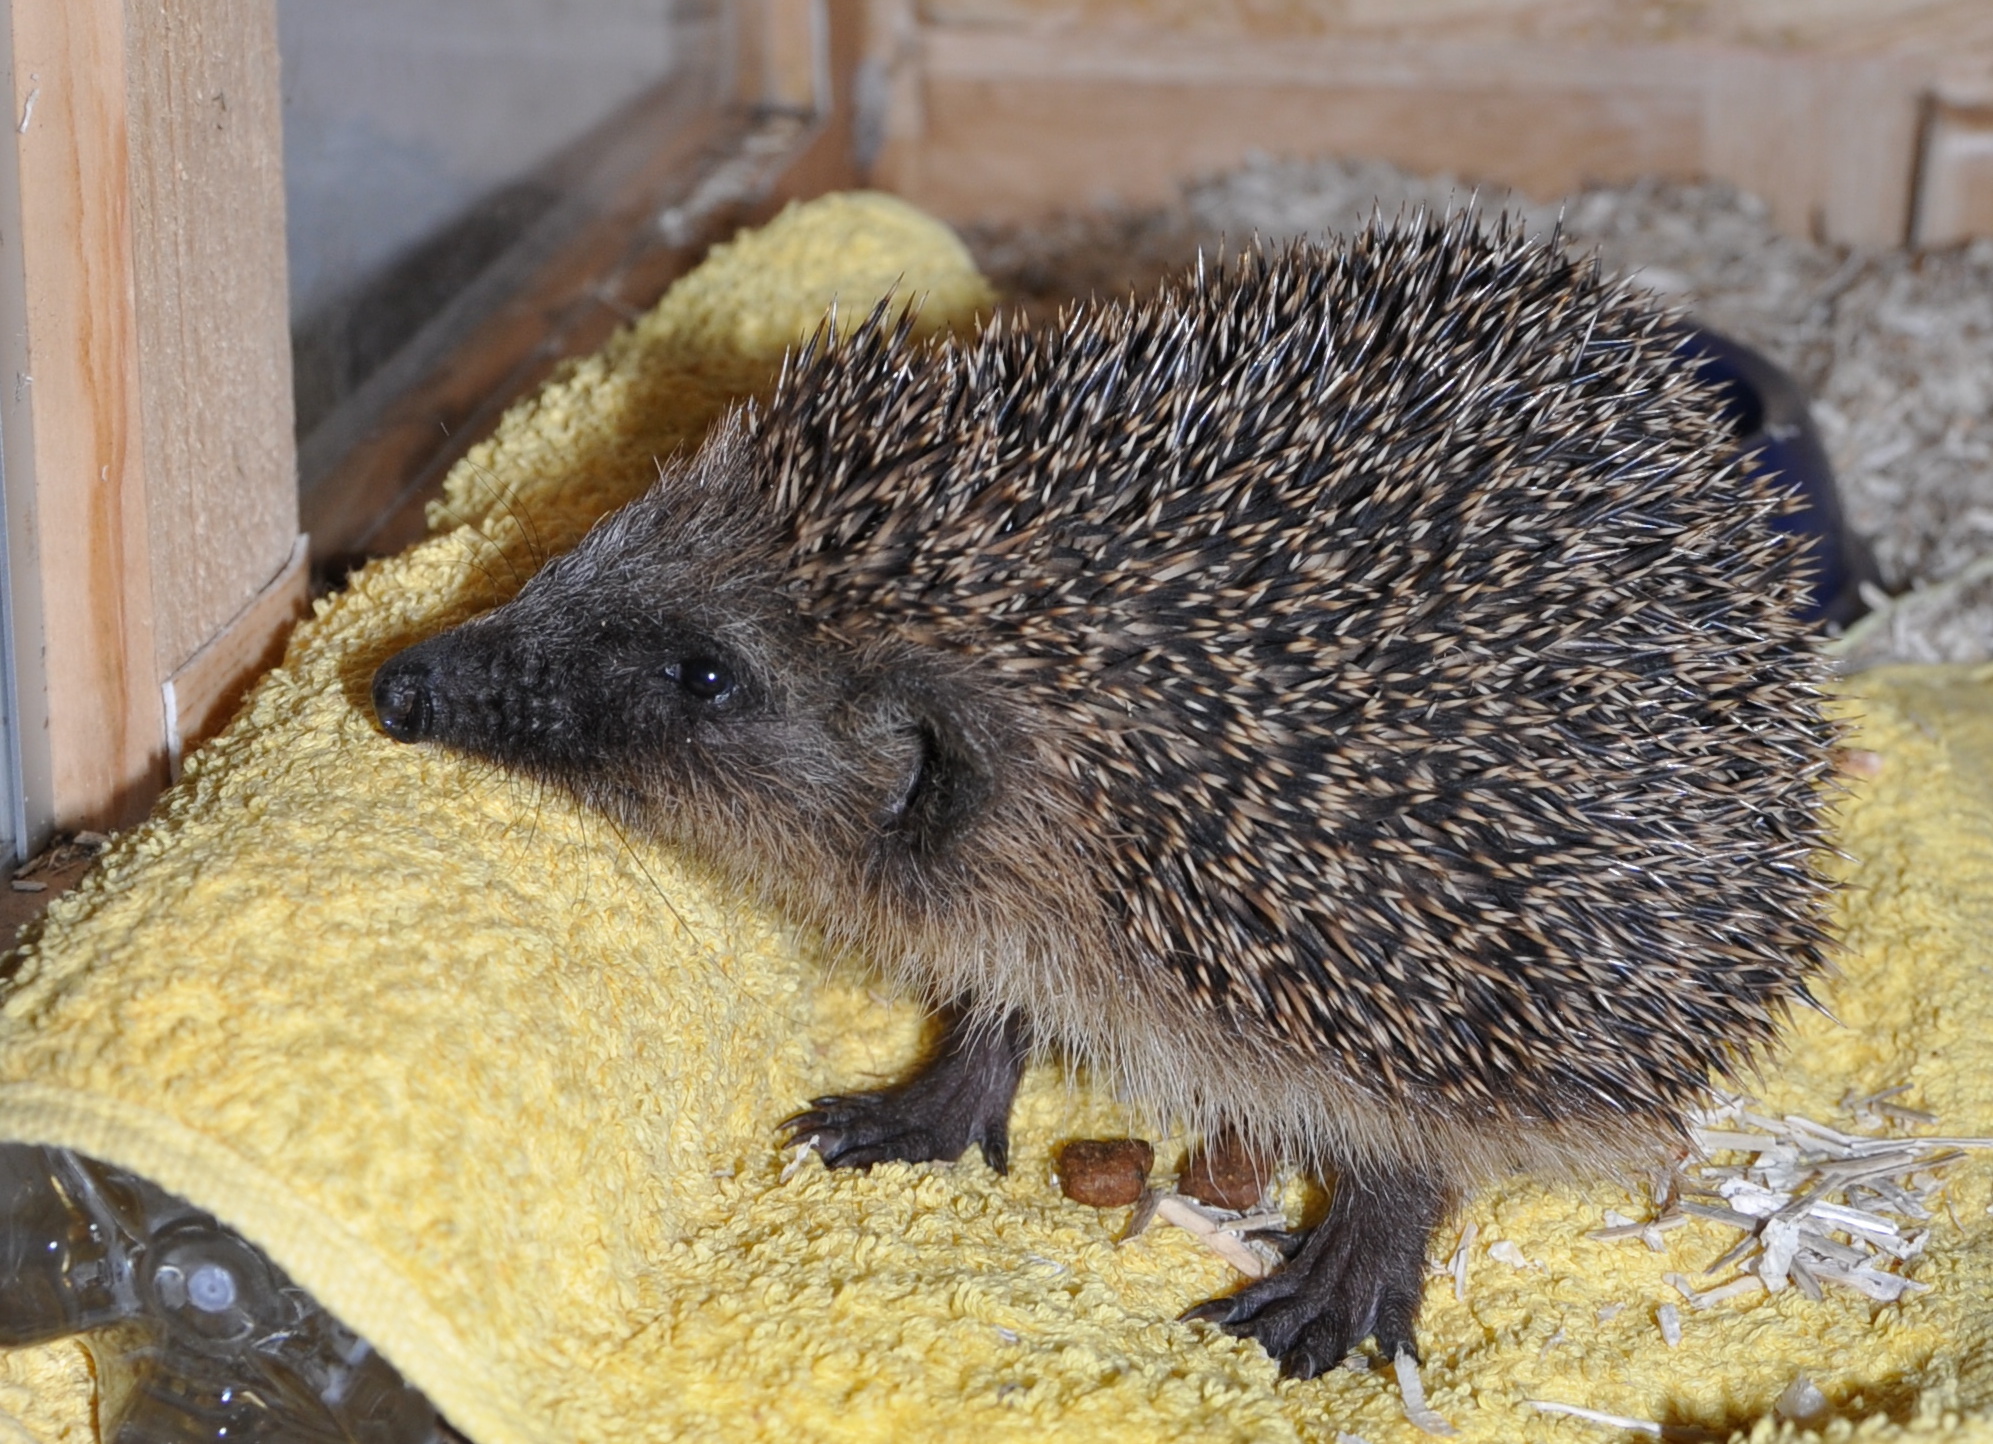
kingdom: Animalia
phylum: Chordata
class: Mammalia
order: Erinaceomorpha
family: Erinaceidae
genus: Erinaceus
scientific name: Erinaceus europaeus
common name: West european hedgehog
